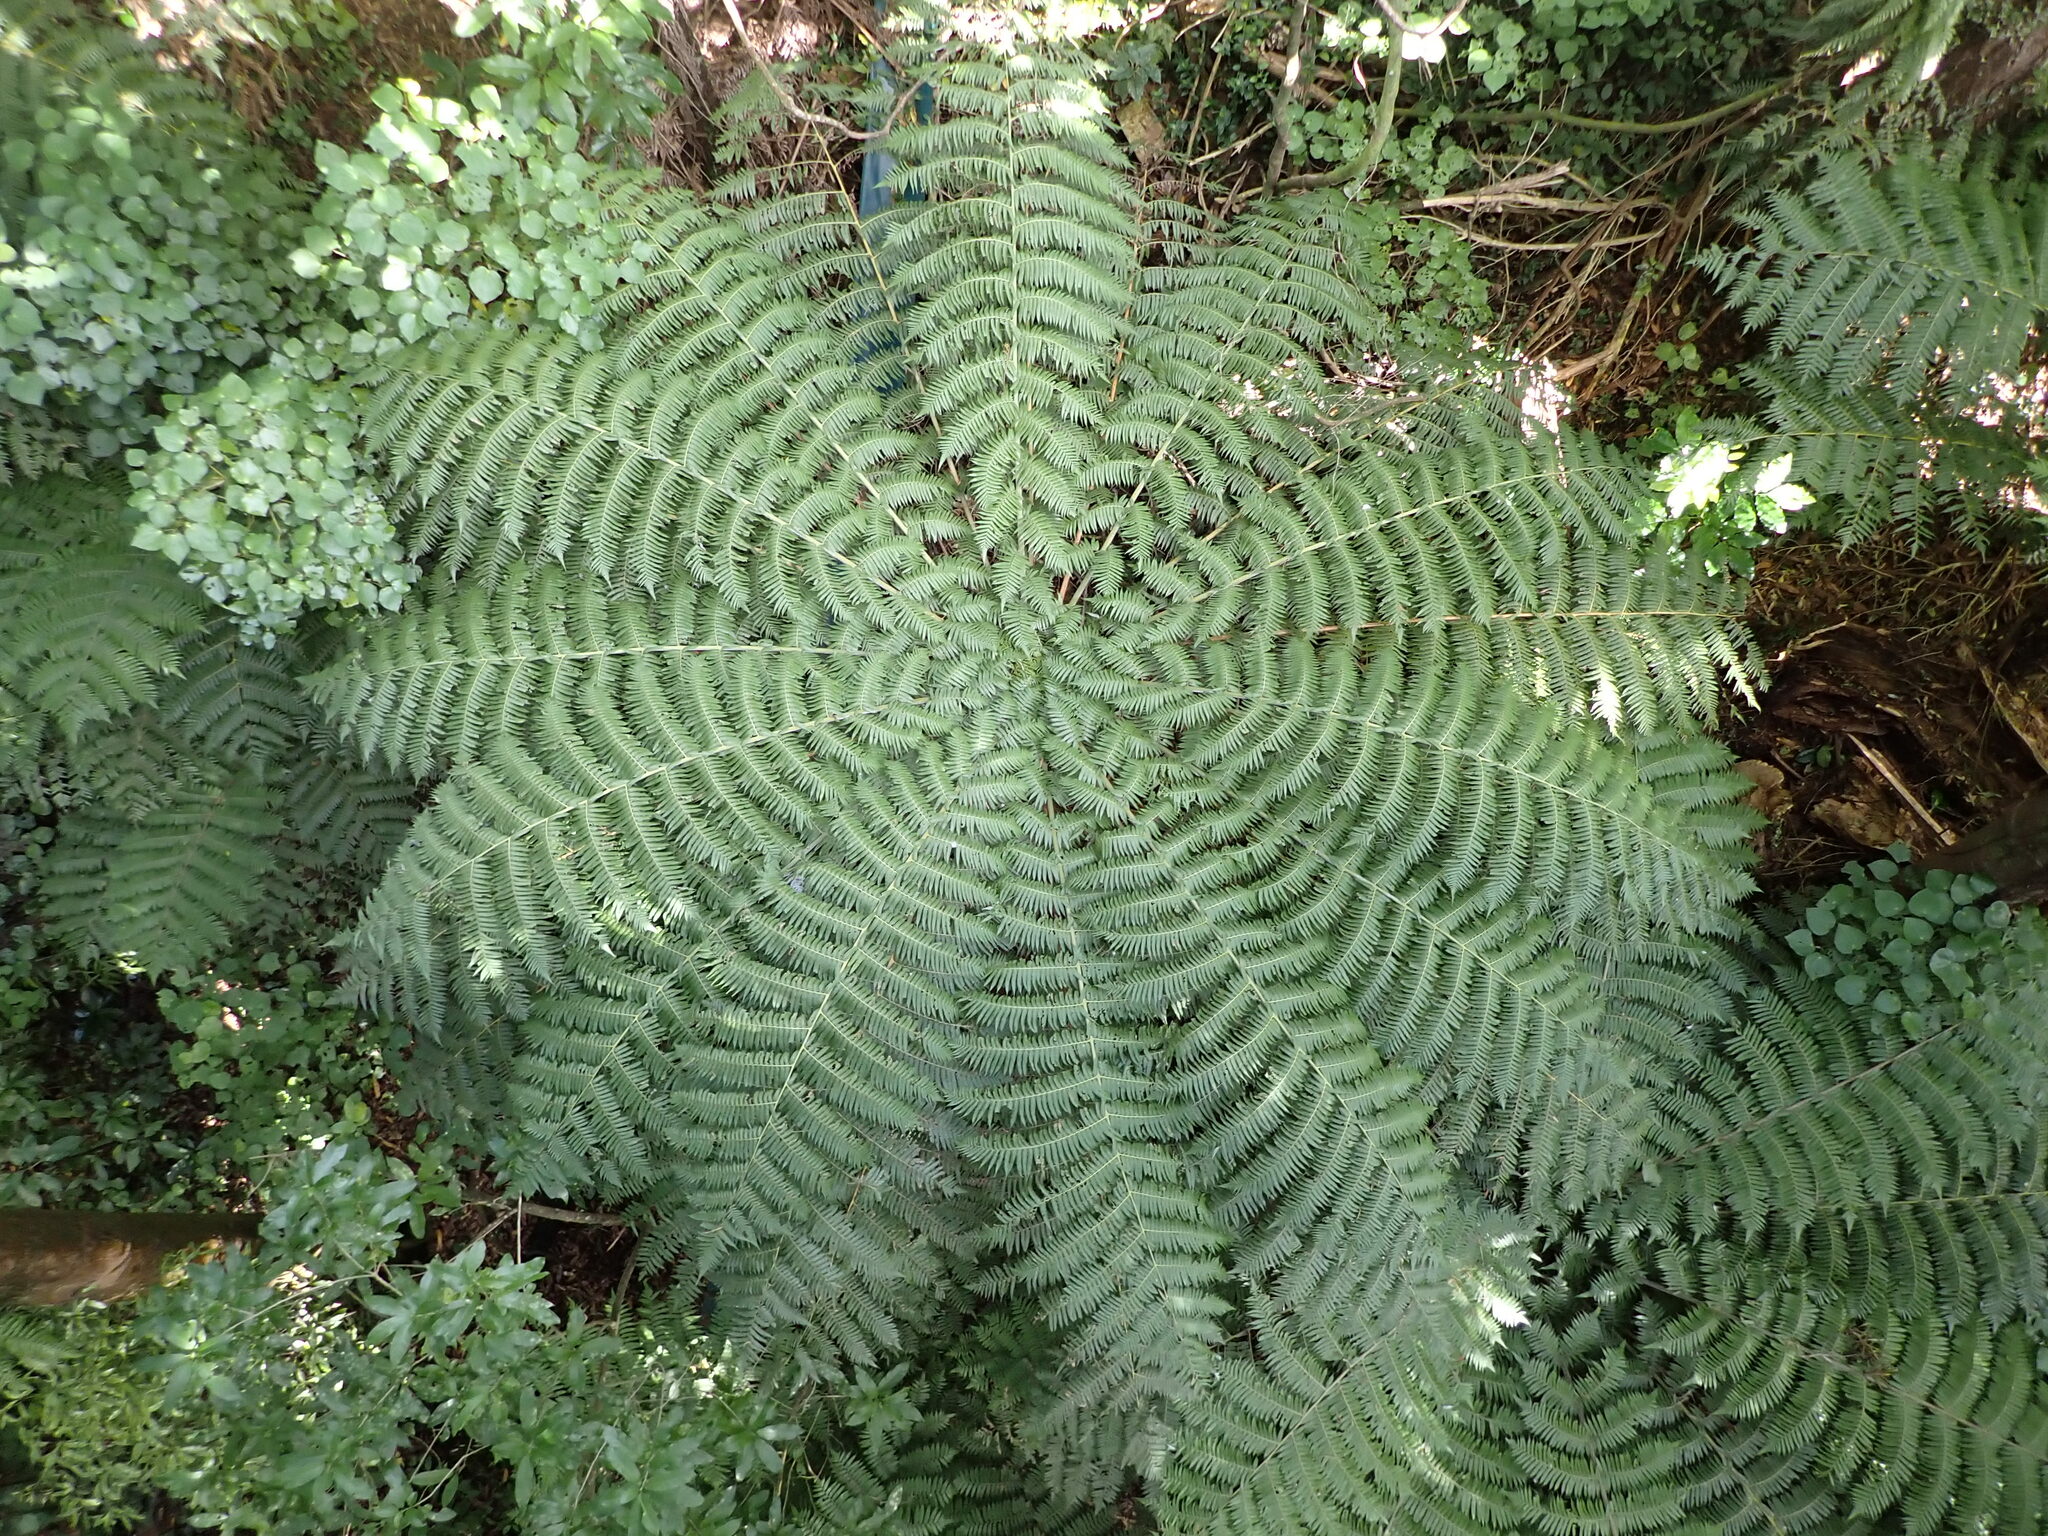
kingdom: Plantae
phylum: Tracheophyta
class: Polypodiopsida
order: Cyatheales
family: Cyatheaceae
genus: Alsophila
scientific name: Alsophila dealbata
